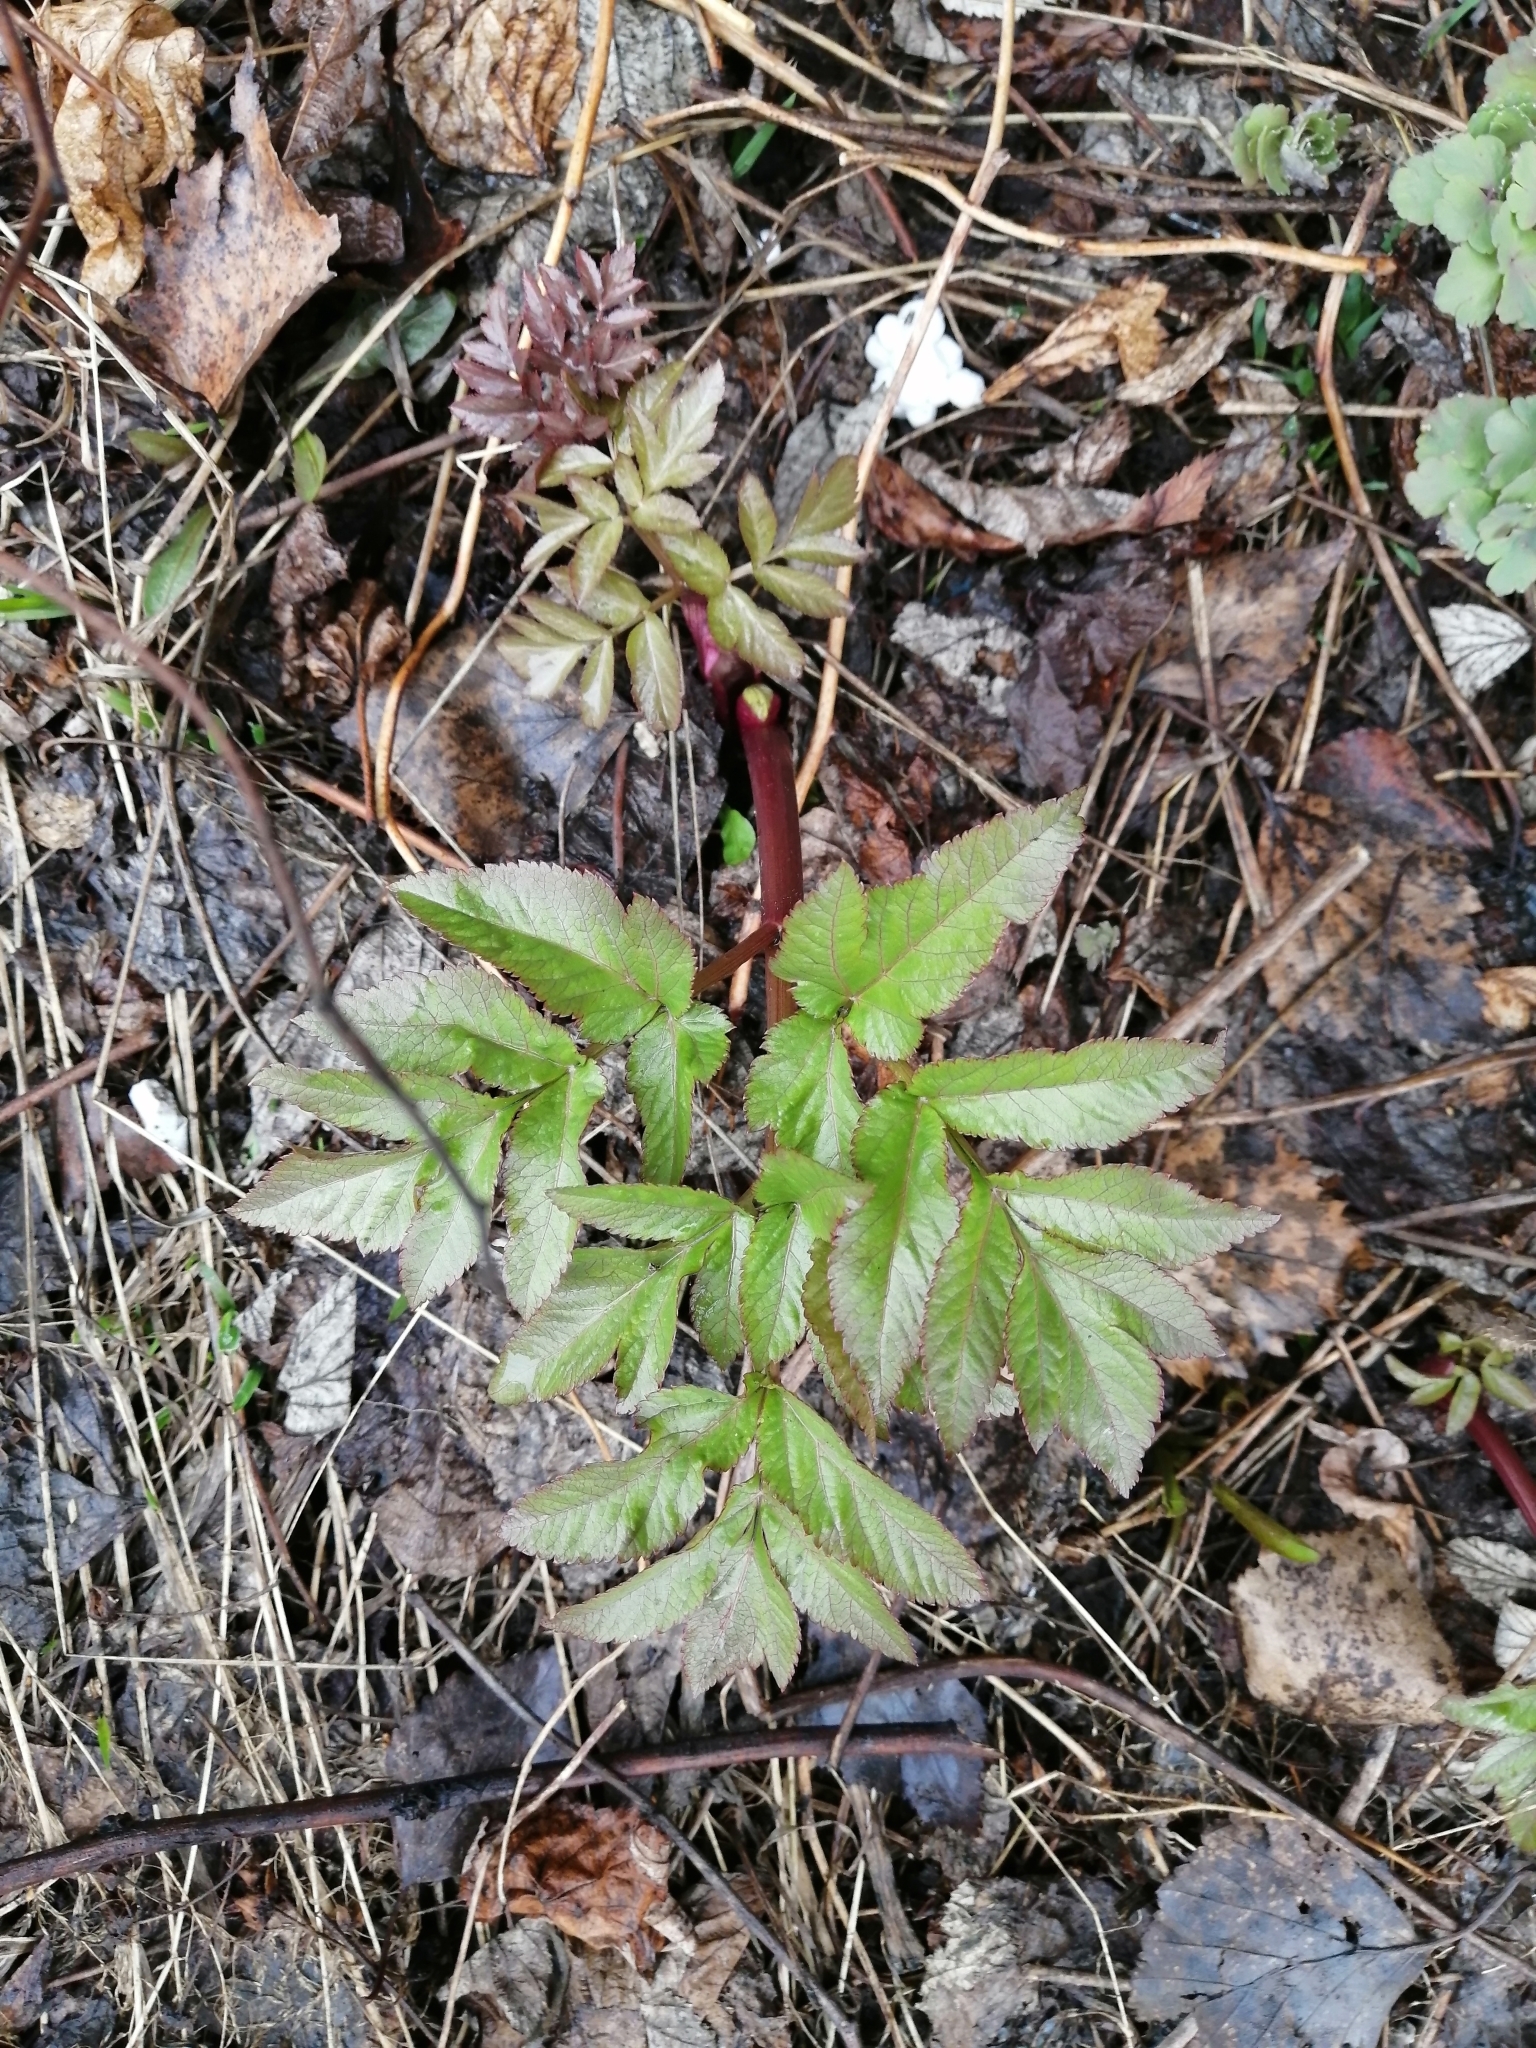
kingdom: Plantae
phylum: Tracheophyta
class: Magnoliopsida
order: Apiales
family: Apiaceae
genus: Angelica
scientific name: Angelica sylvestris
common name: Wild angelica
